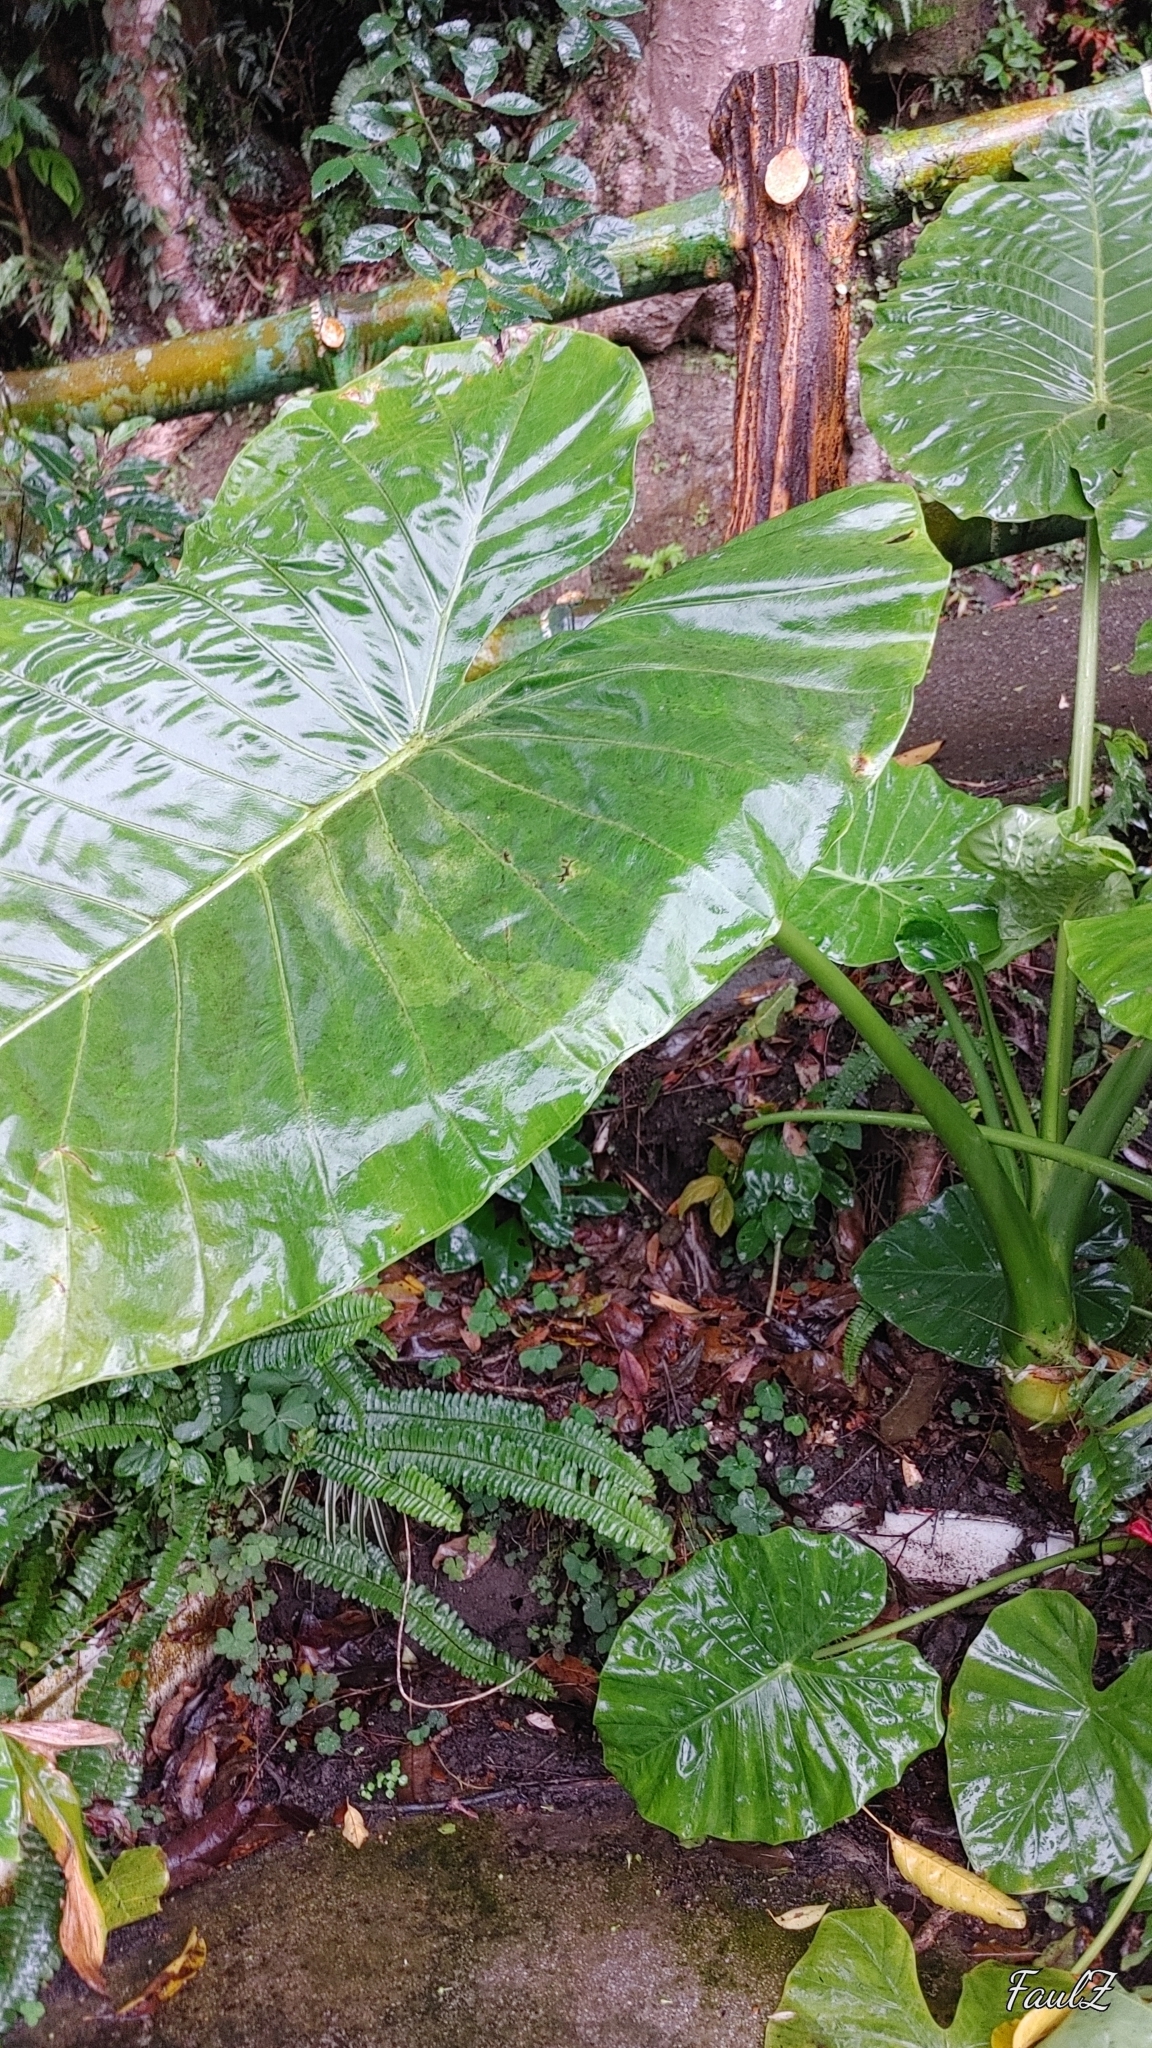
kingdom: Plantae
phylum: Tracheophyta
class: Liliopsida
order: Alismatales
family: Araceae
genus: Alocasia
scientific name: Alocasia odora
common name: Asian taro
